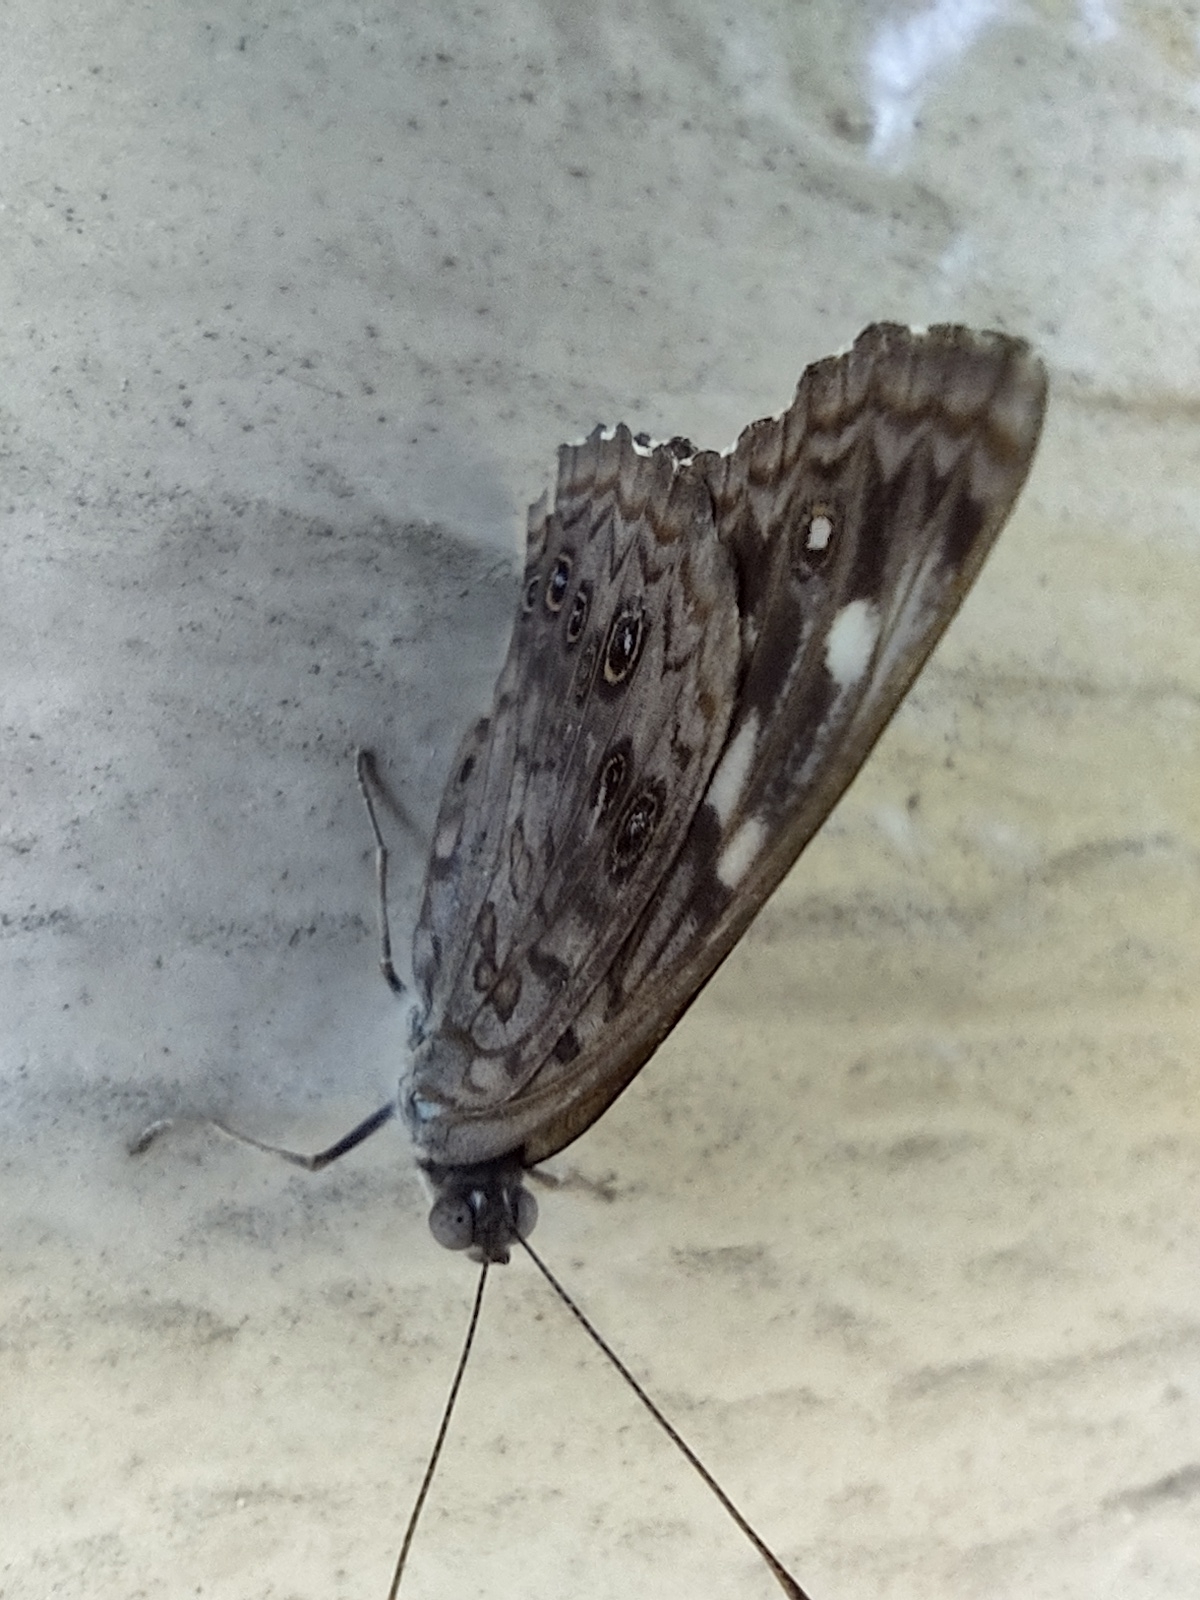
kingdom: Animalia
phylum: Arthropoda
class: Insecta
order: Lepidoptera
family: Nymphalidae
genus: Asterocampa
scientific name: Asterocampa celtis
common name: Hackberry emperor
